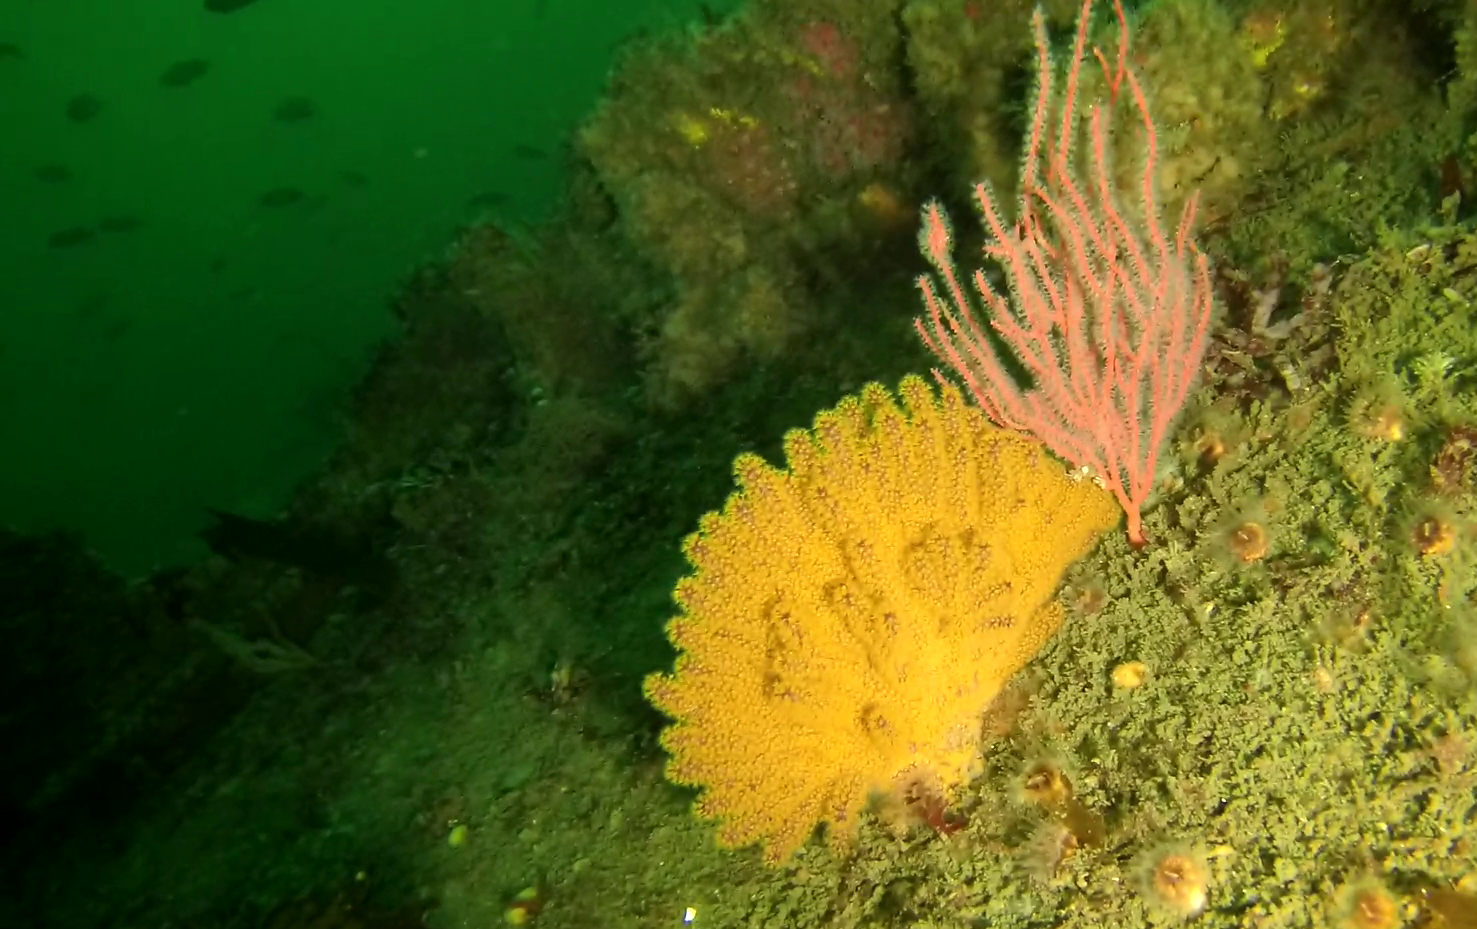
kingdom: Animalia
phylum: Cnidaria
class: Anthozoa
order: Malacalcyonacea
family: Plexauridae
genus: Muricea
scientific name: Muricea californica
